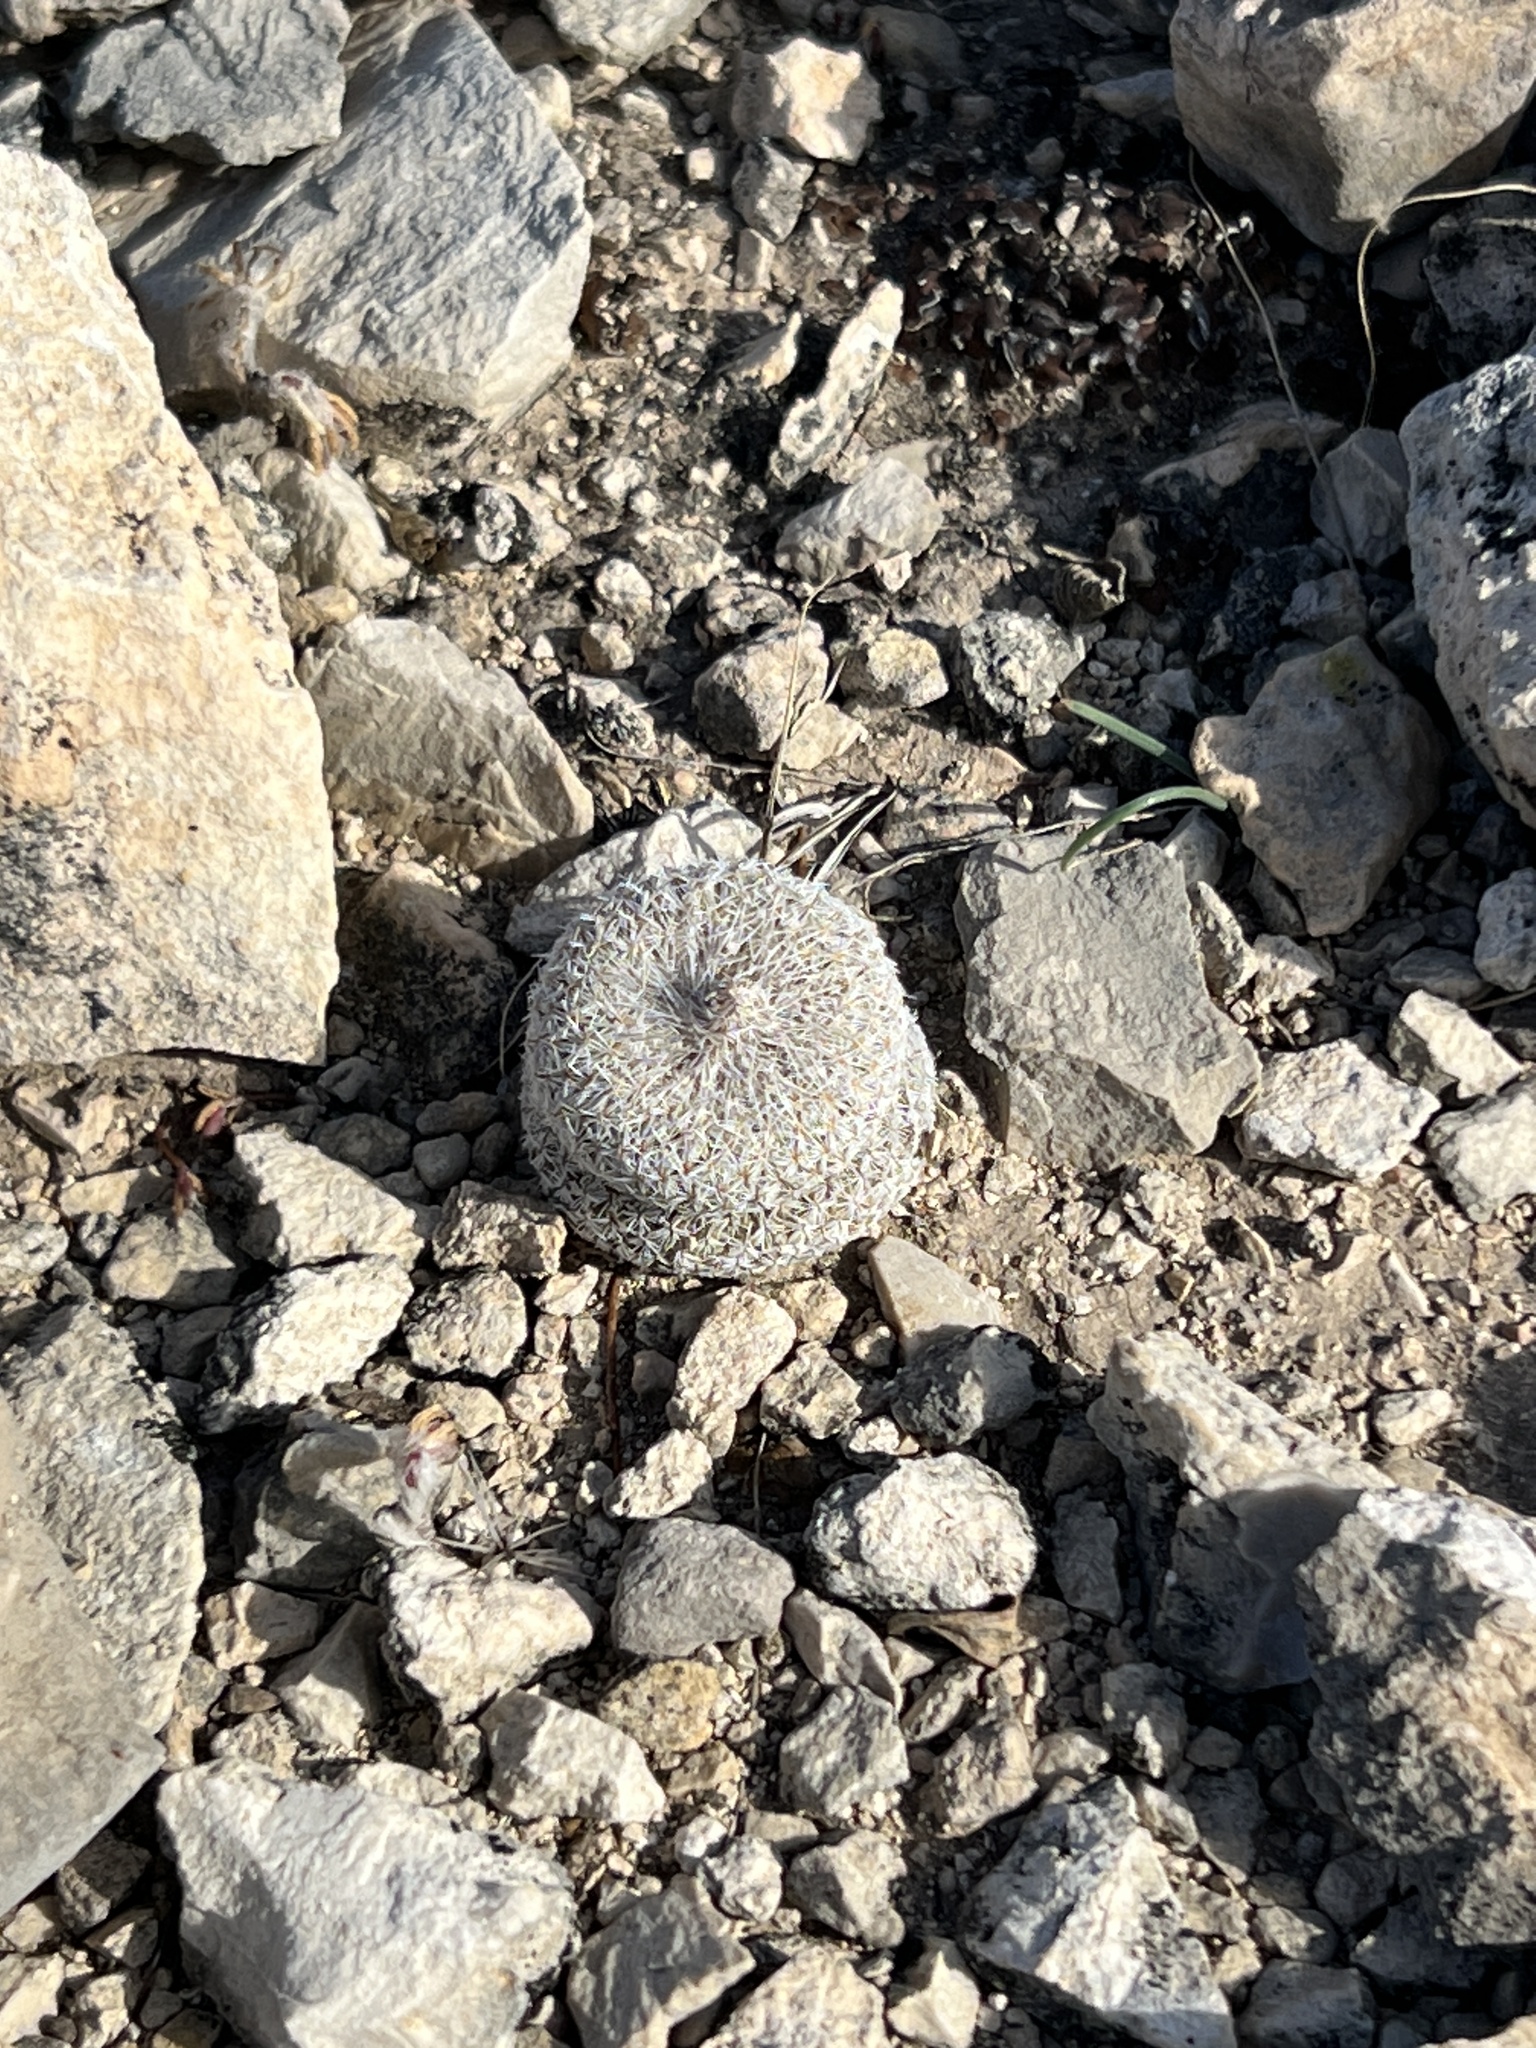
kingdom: Plantae
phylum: Tracheophyta
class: Magnoliopsida
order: Caryophyllales
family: Cactaceae
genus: Epithelantha
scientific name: Epithelantha micromeris
